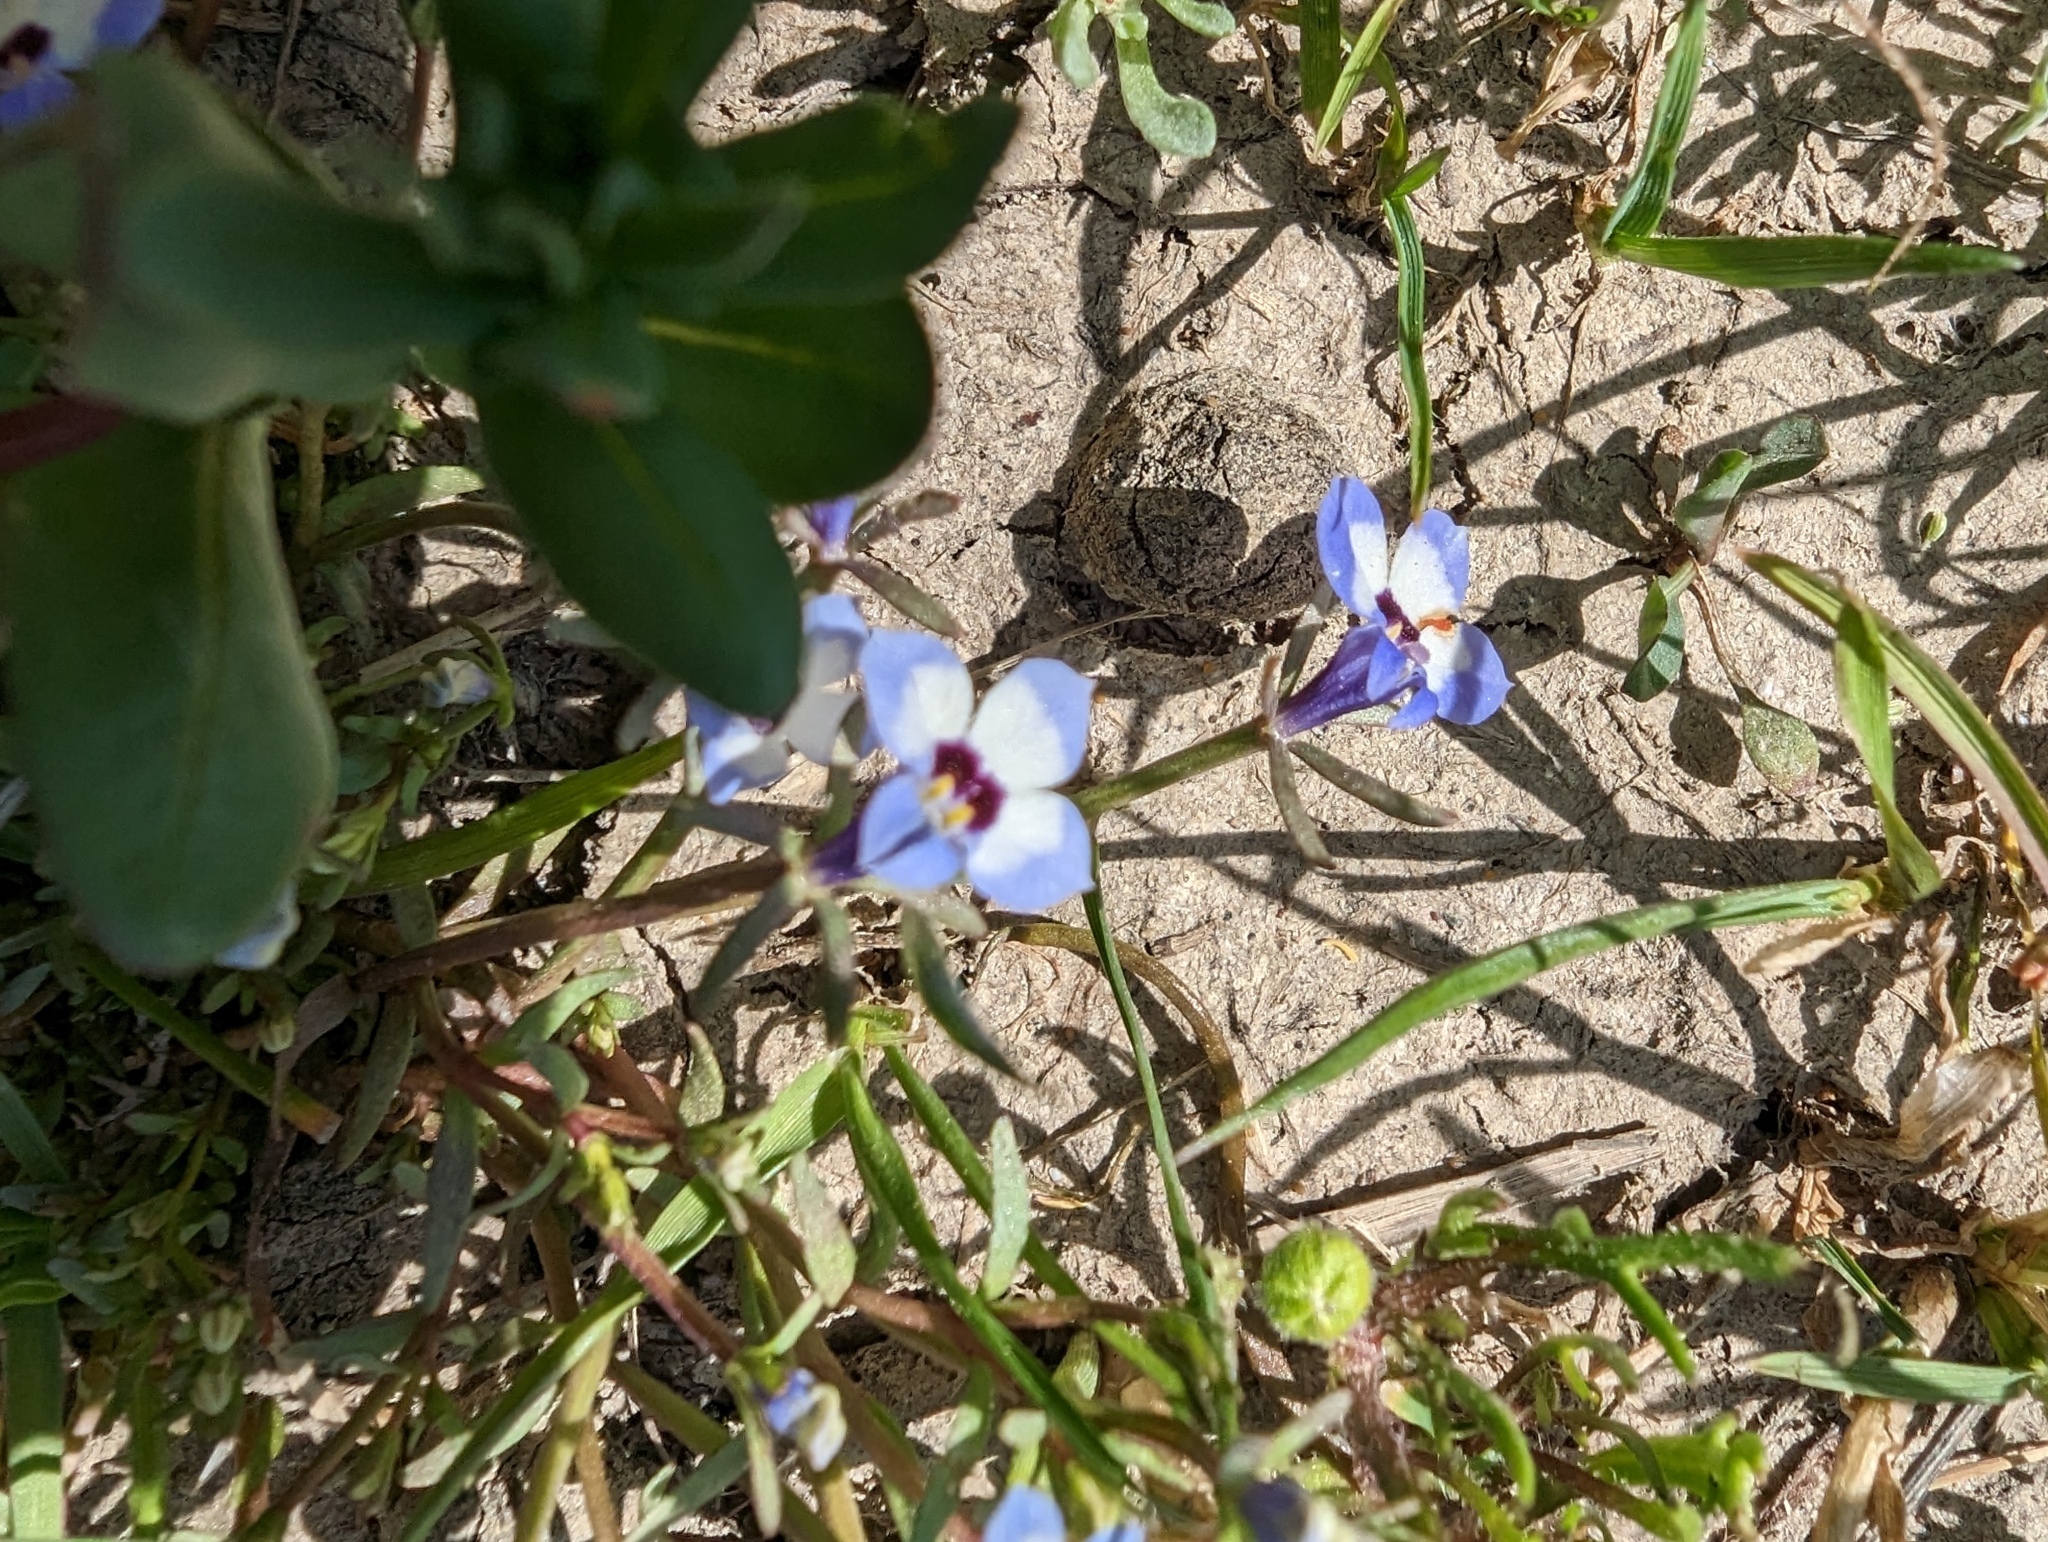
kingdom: Plantae
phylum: Tracheophyta
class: Magnoliopsida
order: Asterales
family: Campanulaceae
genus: Downingia
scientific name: Downingia concolor
